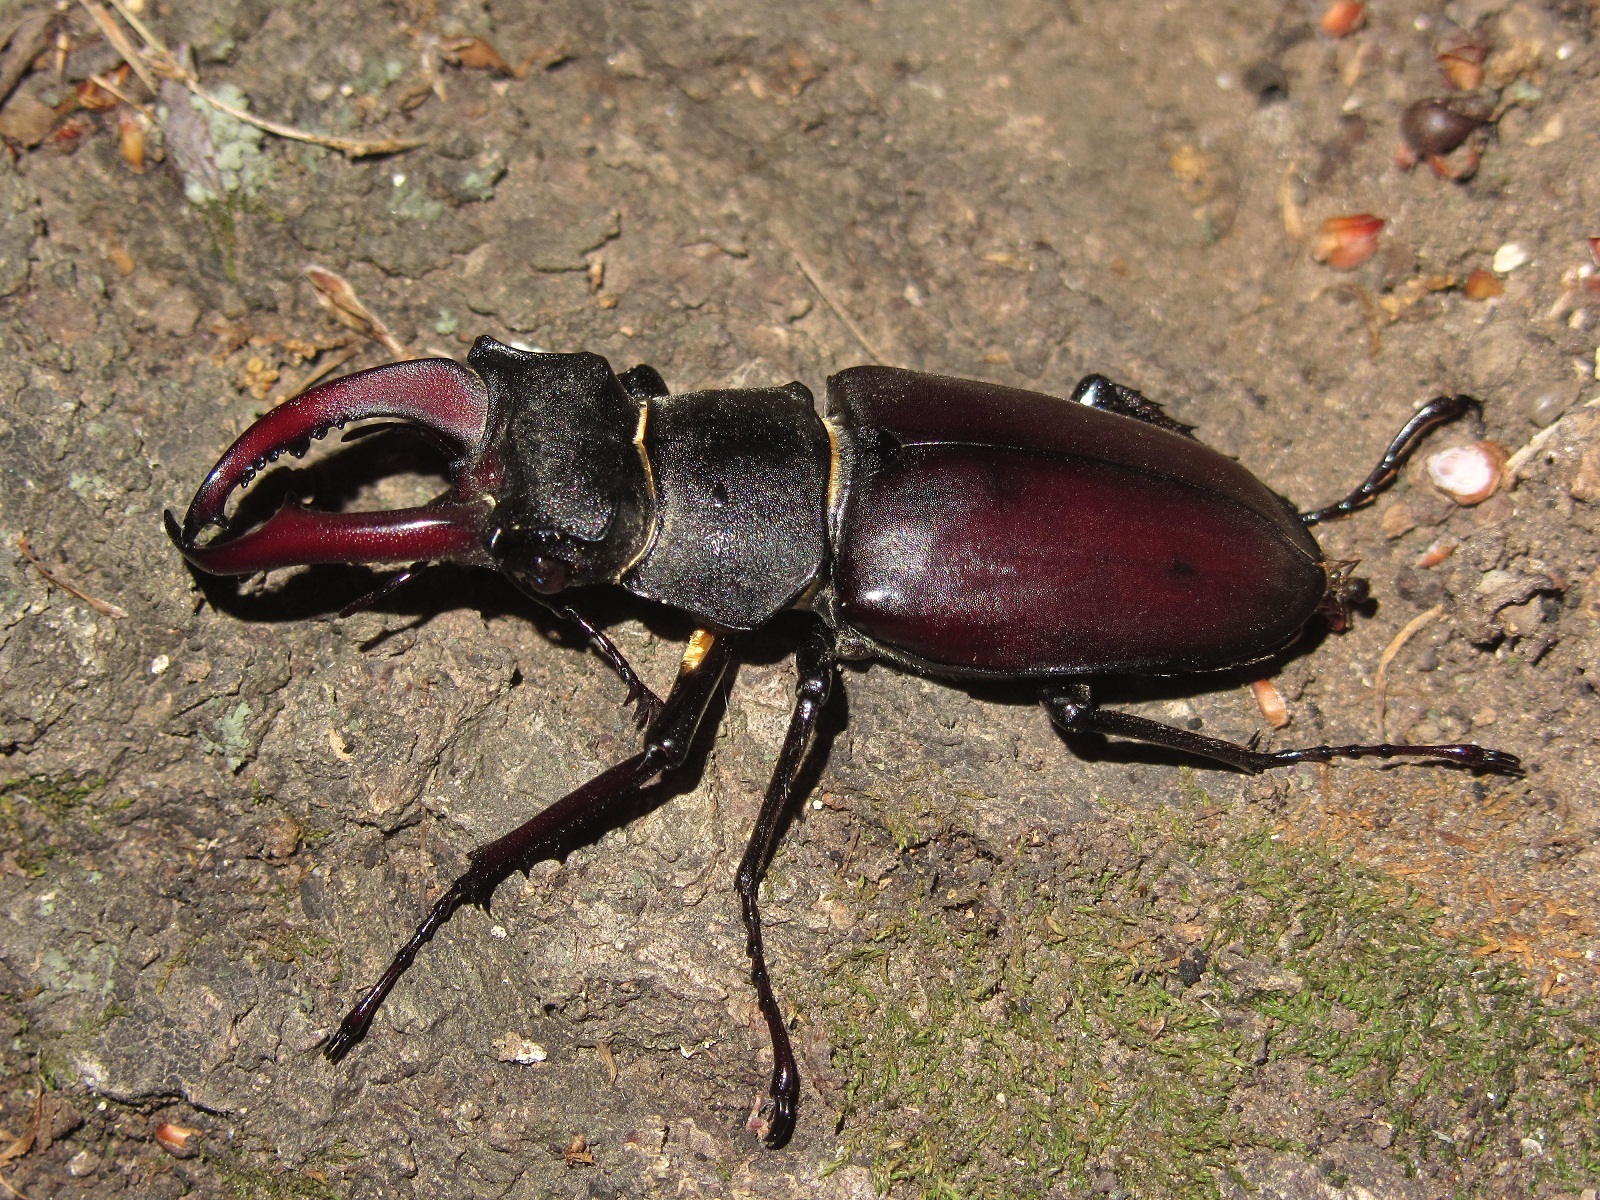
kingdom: Animalia
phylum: Arthropoda
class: Insecta
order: Coleoptera
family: Lucanidae
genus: Lucanus
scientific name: Lucanus cervus
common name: Stag beetle
